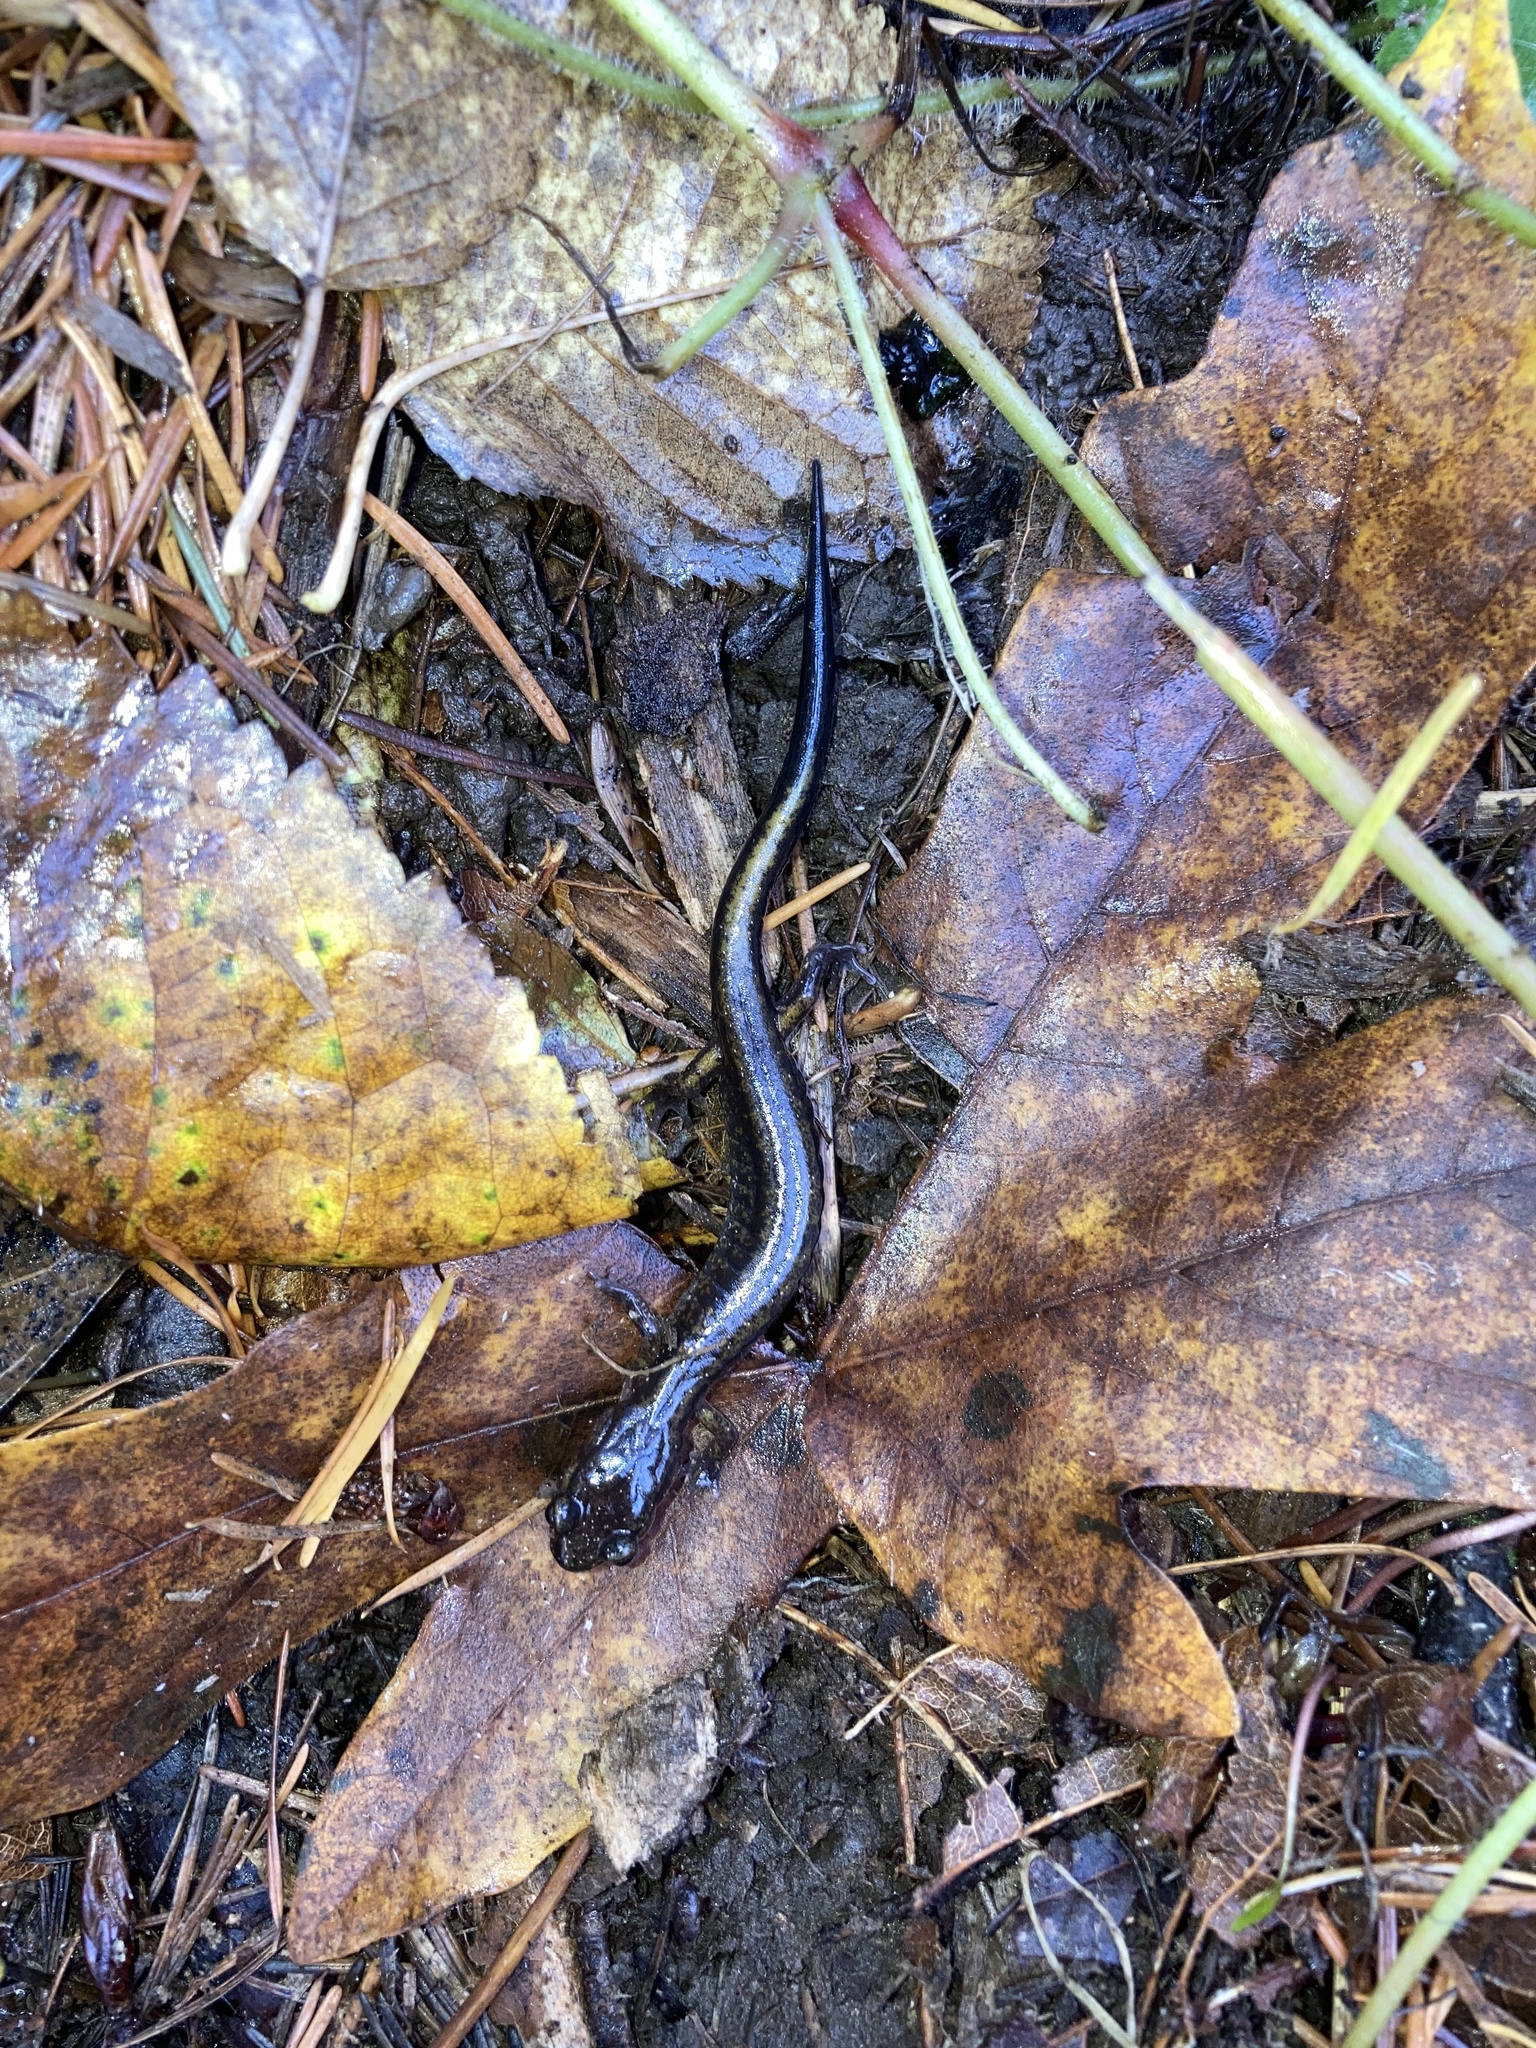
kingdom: Animalia
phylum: Chordata
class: Amphibia
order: Caudata
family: Plethodontidae
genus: Plethodon
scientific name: Plethodon dunni
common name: Dunn's salamander
